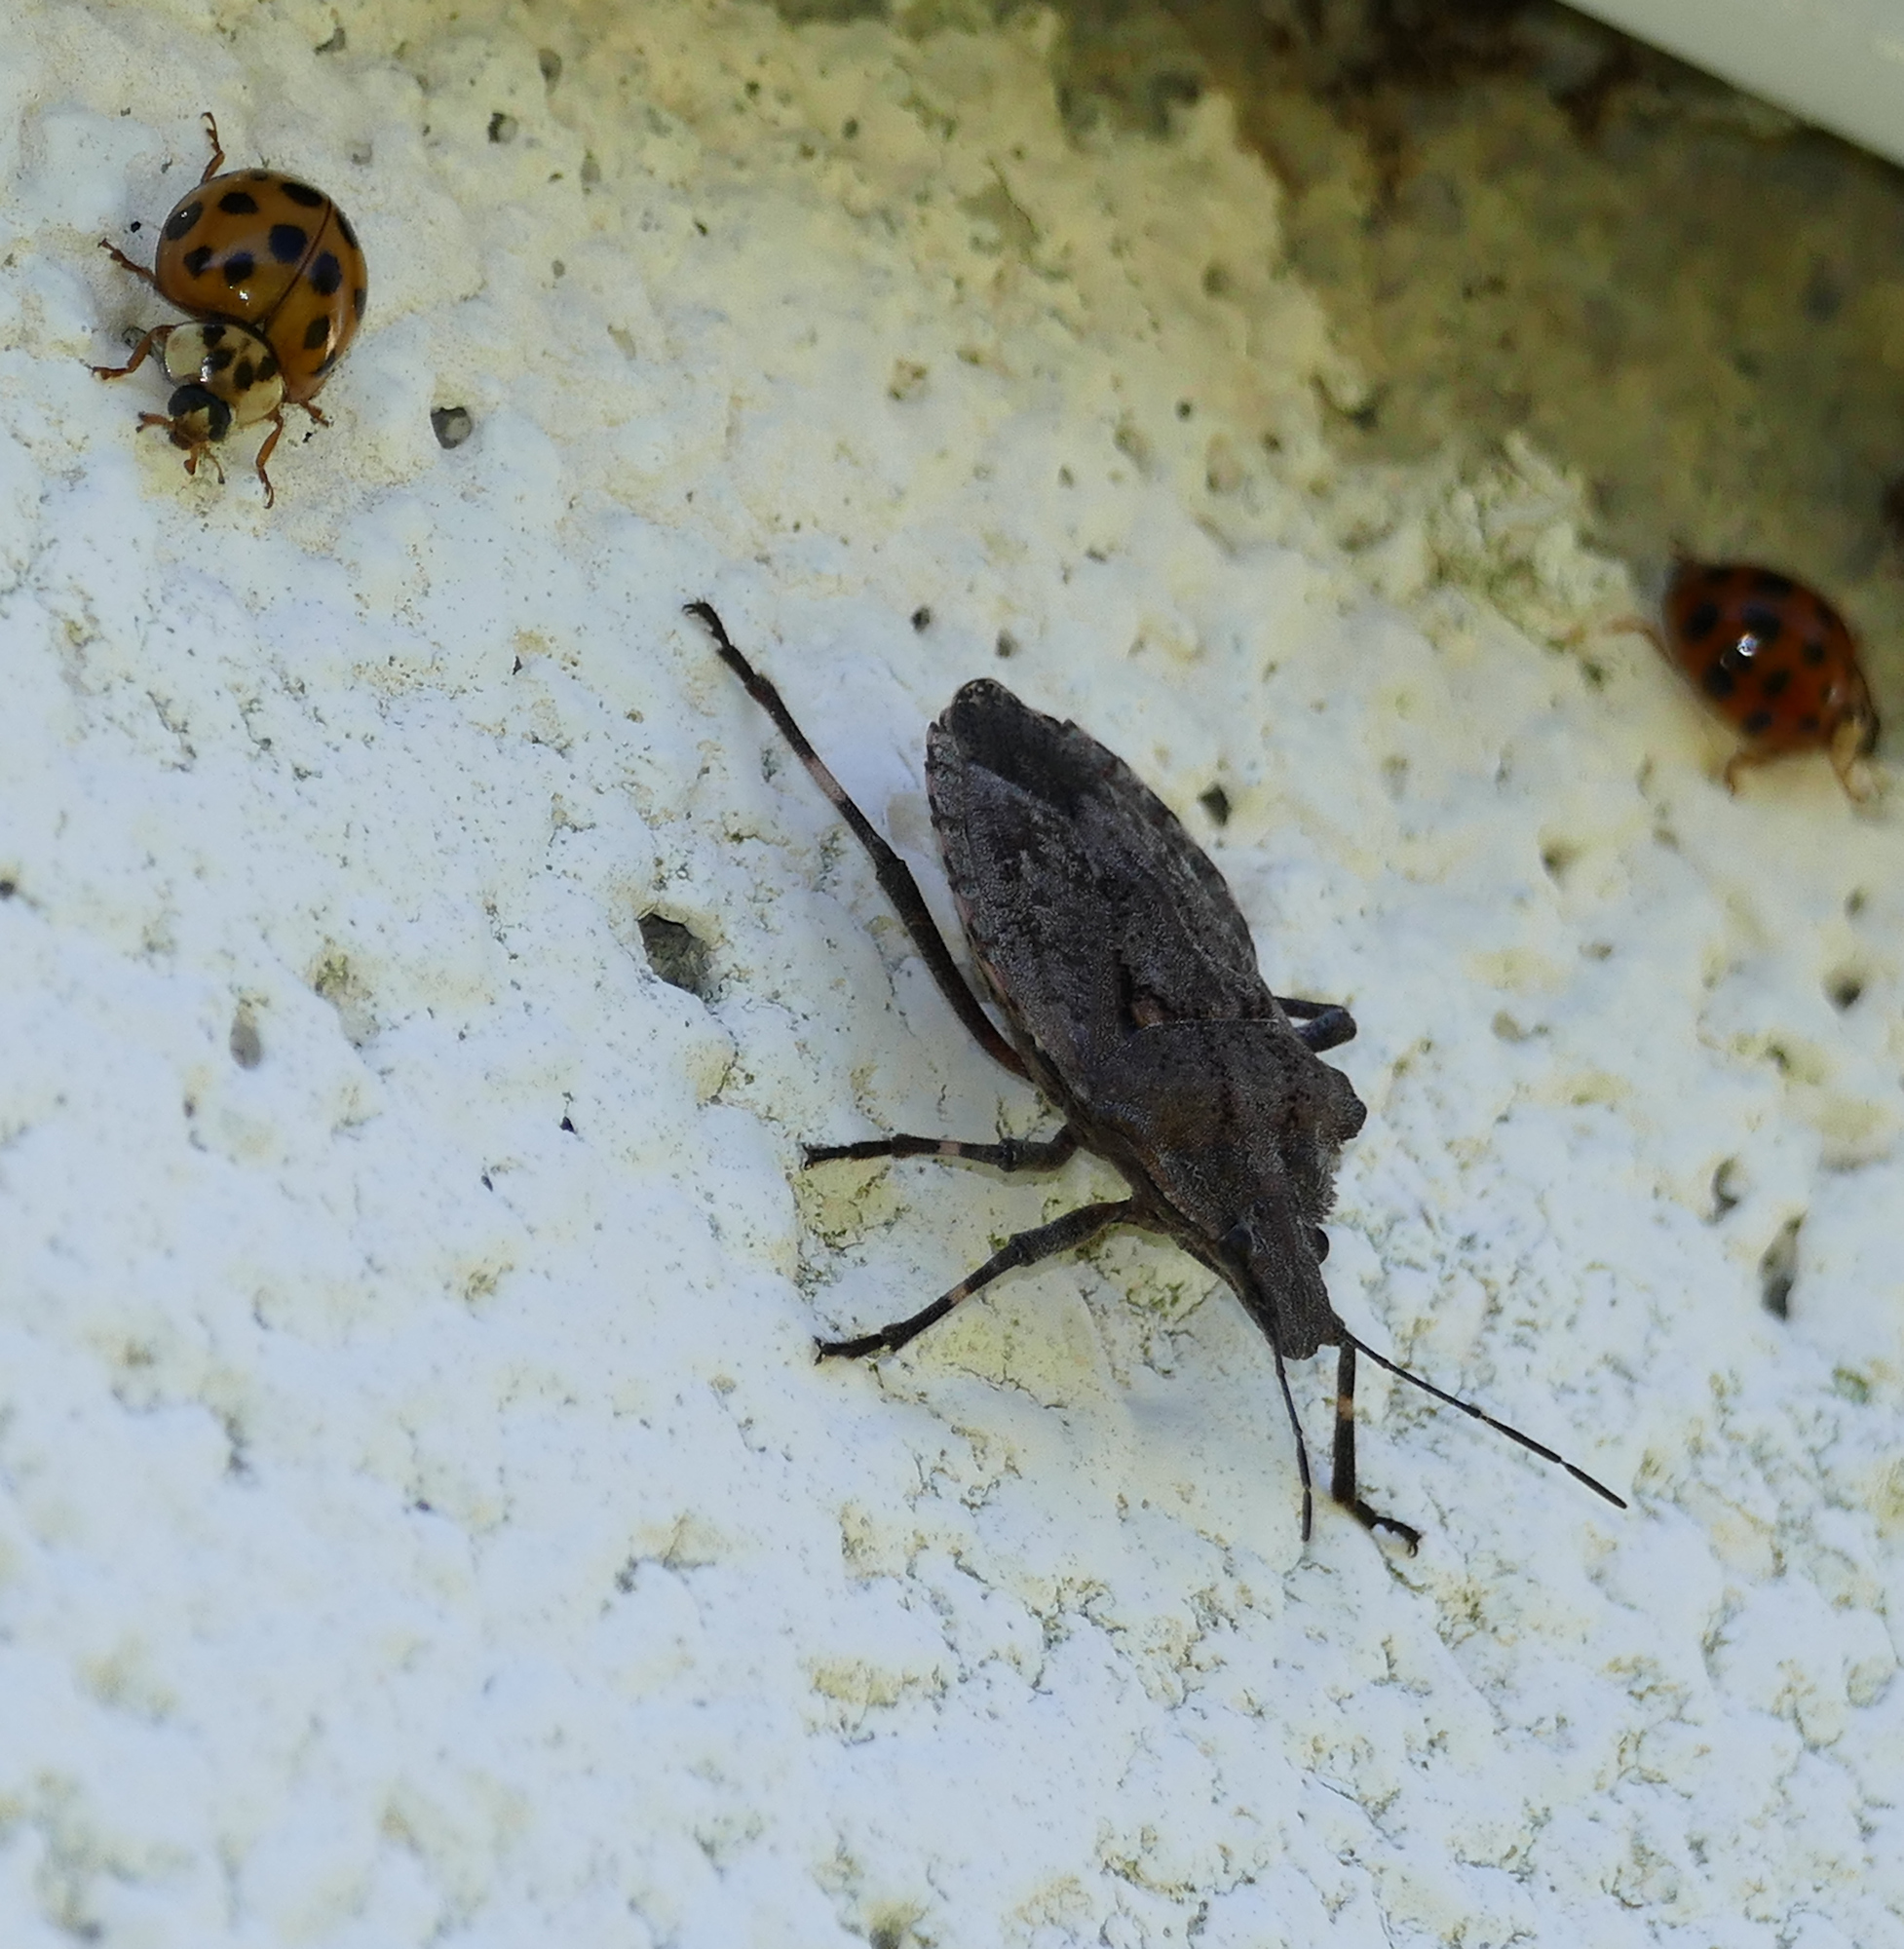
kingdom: Animalia
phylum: Arthropoda
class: Insecta
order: Hemiptera
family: Pentatomidae
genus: Brochymena
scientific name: Brochymena quadripustulata
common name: Four-humped stink bug
